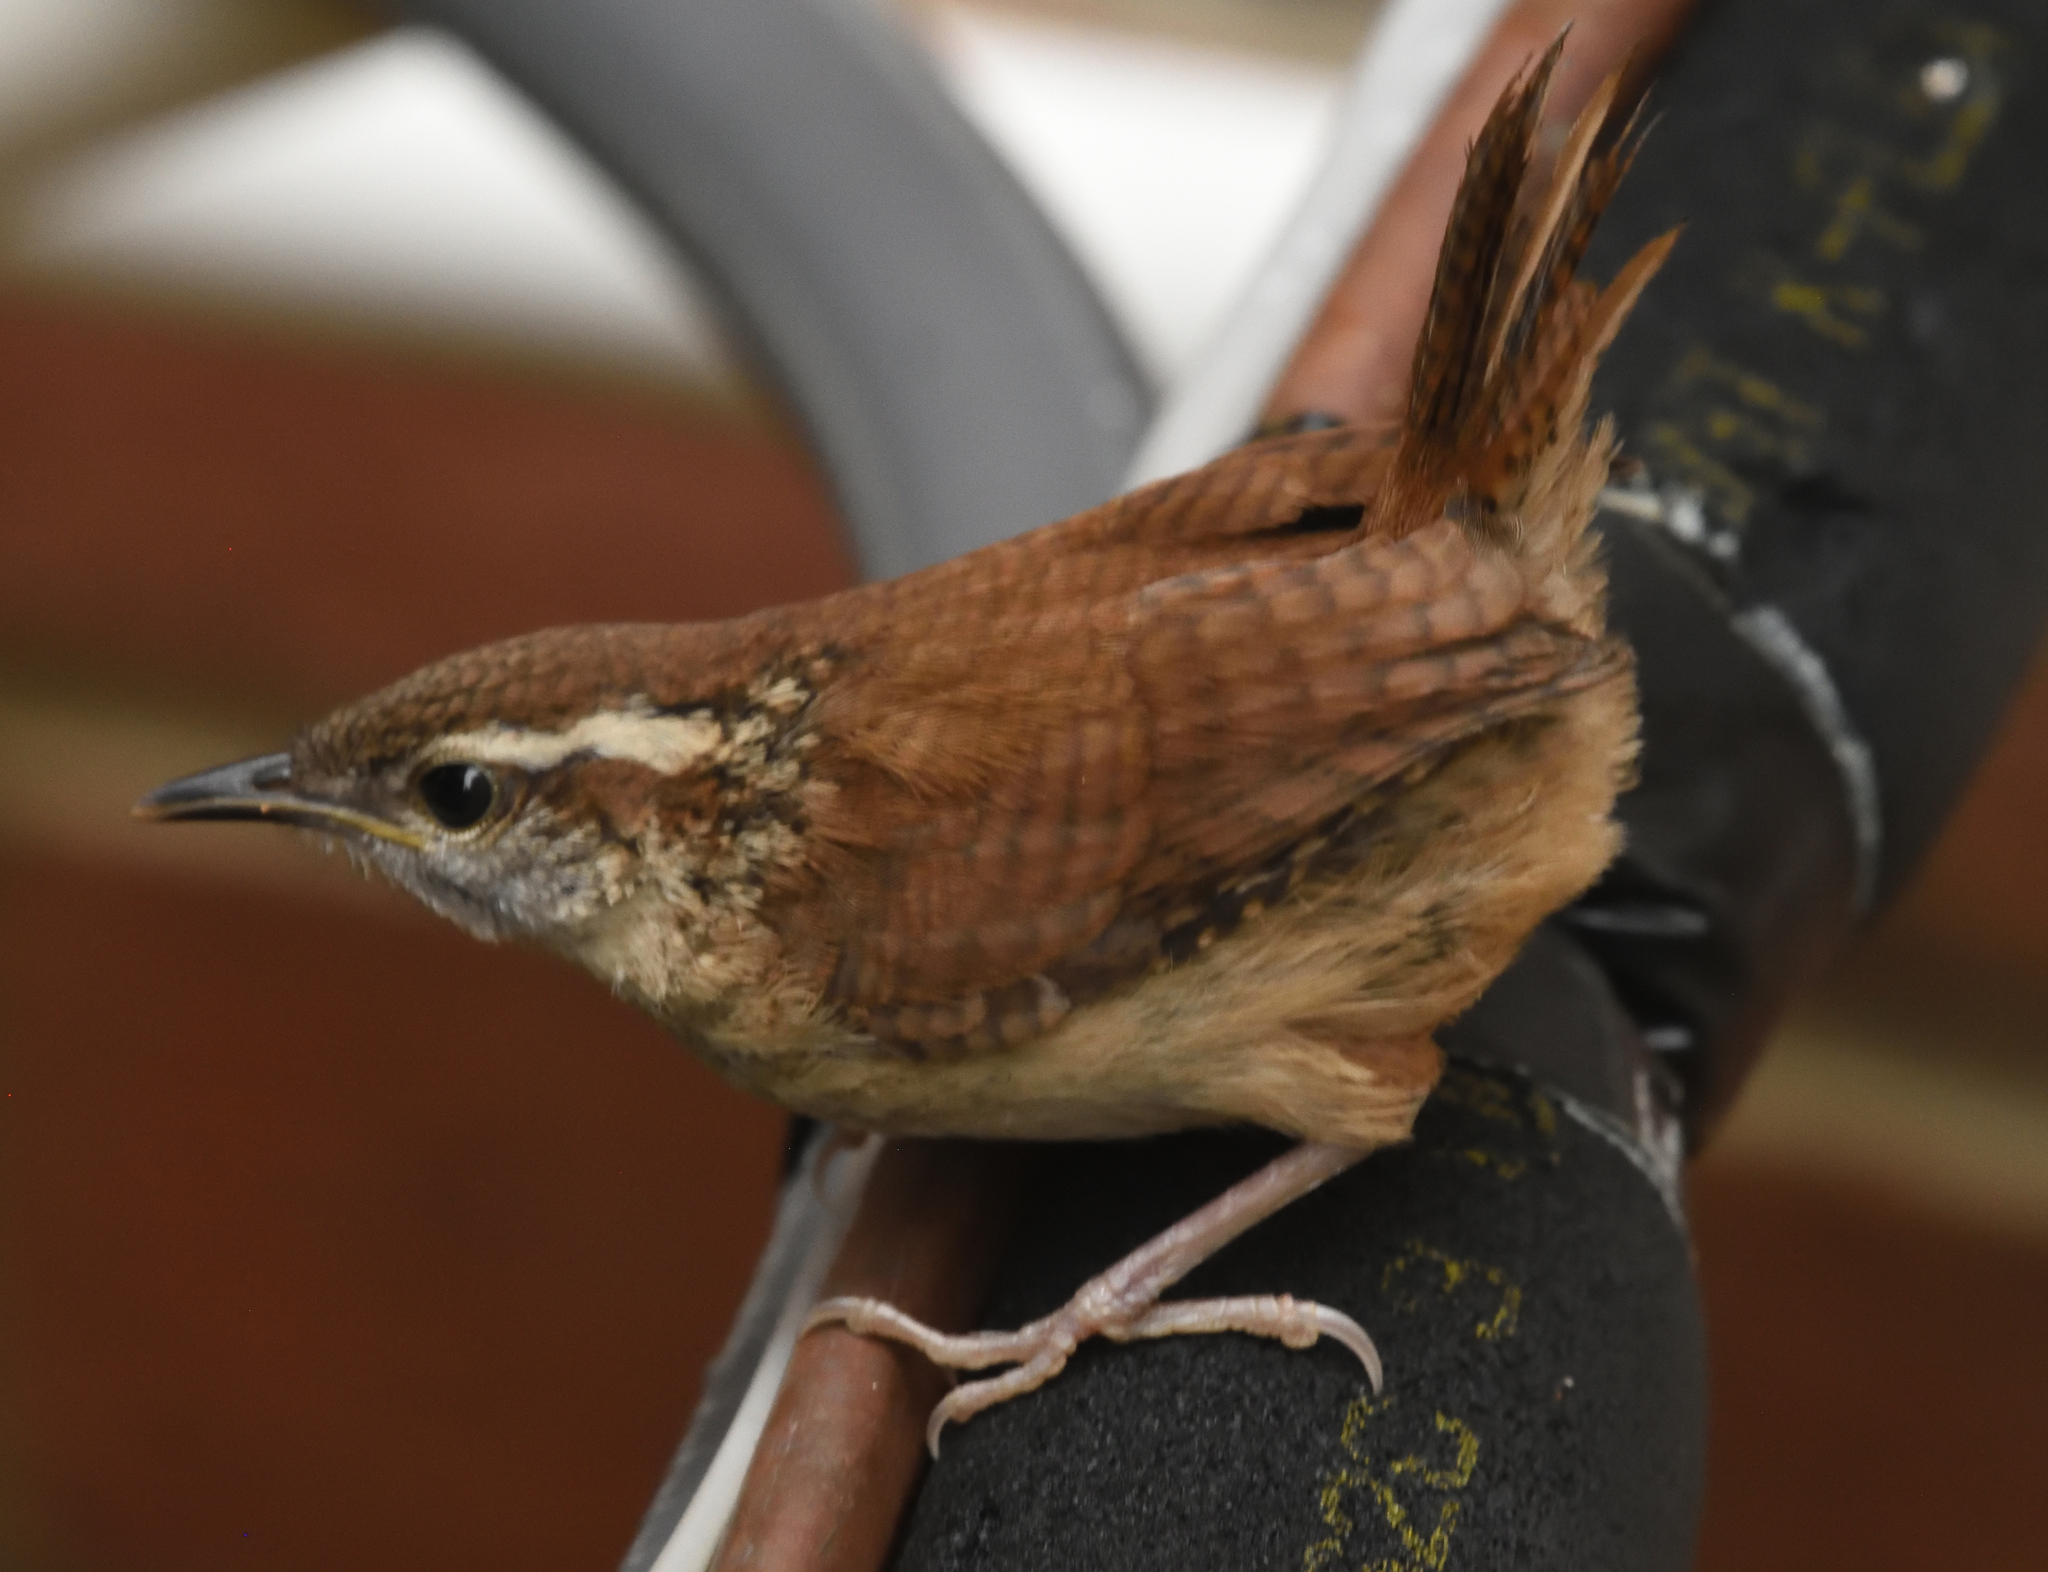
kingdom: Animalia
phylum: Chordata
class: Aves
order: Passeriformes
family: Troglodytidae
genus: Thryothorus
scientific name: Thryothorus ludovicianus
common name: Carolina wren
